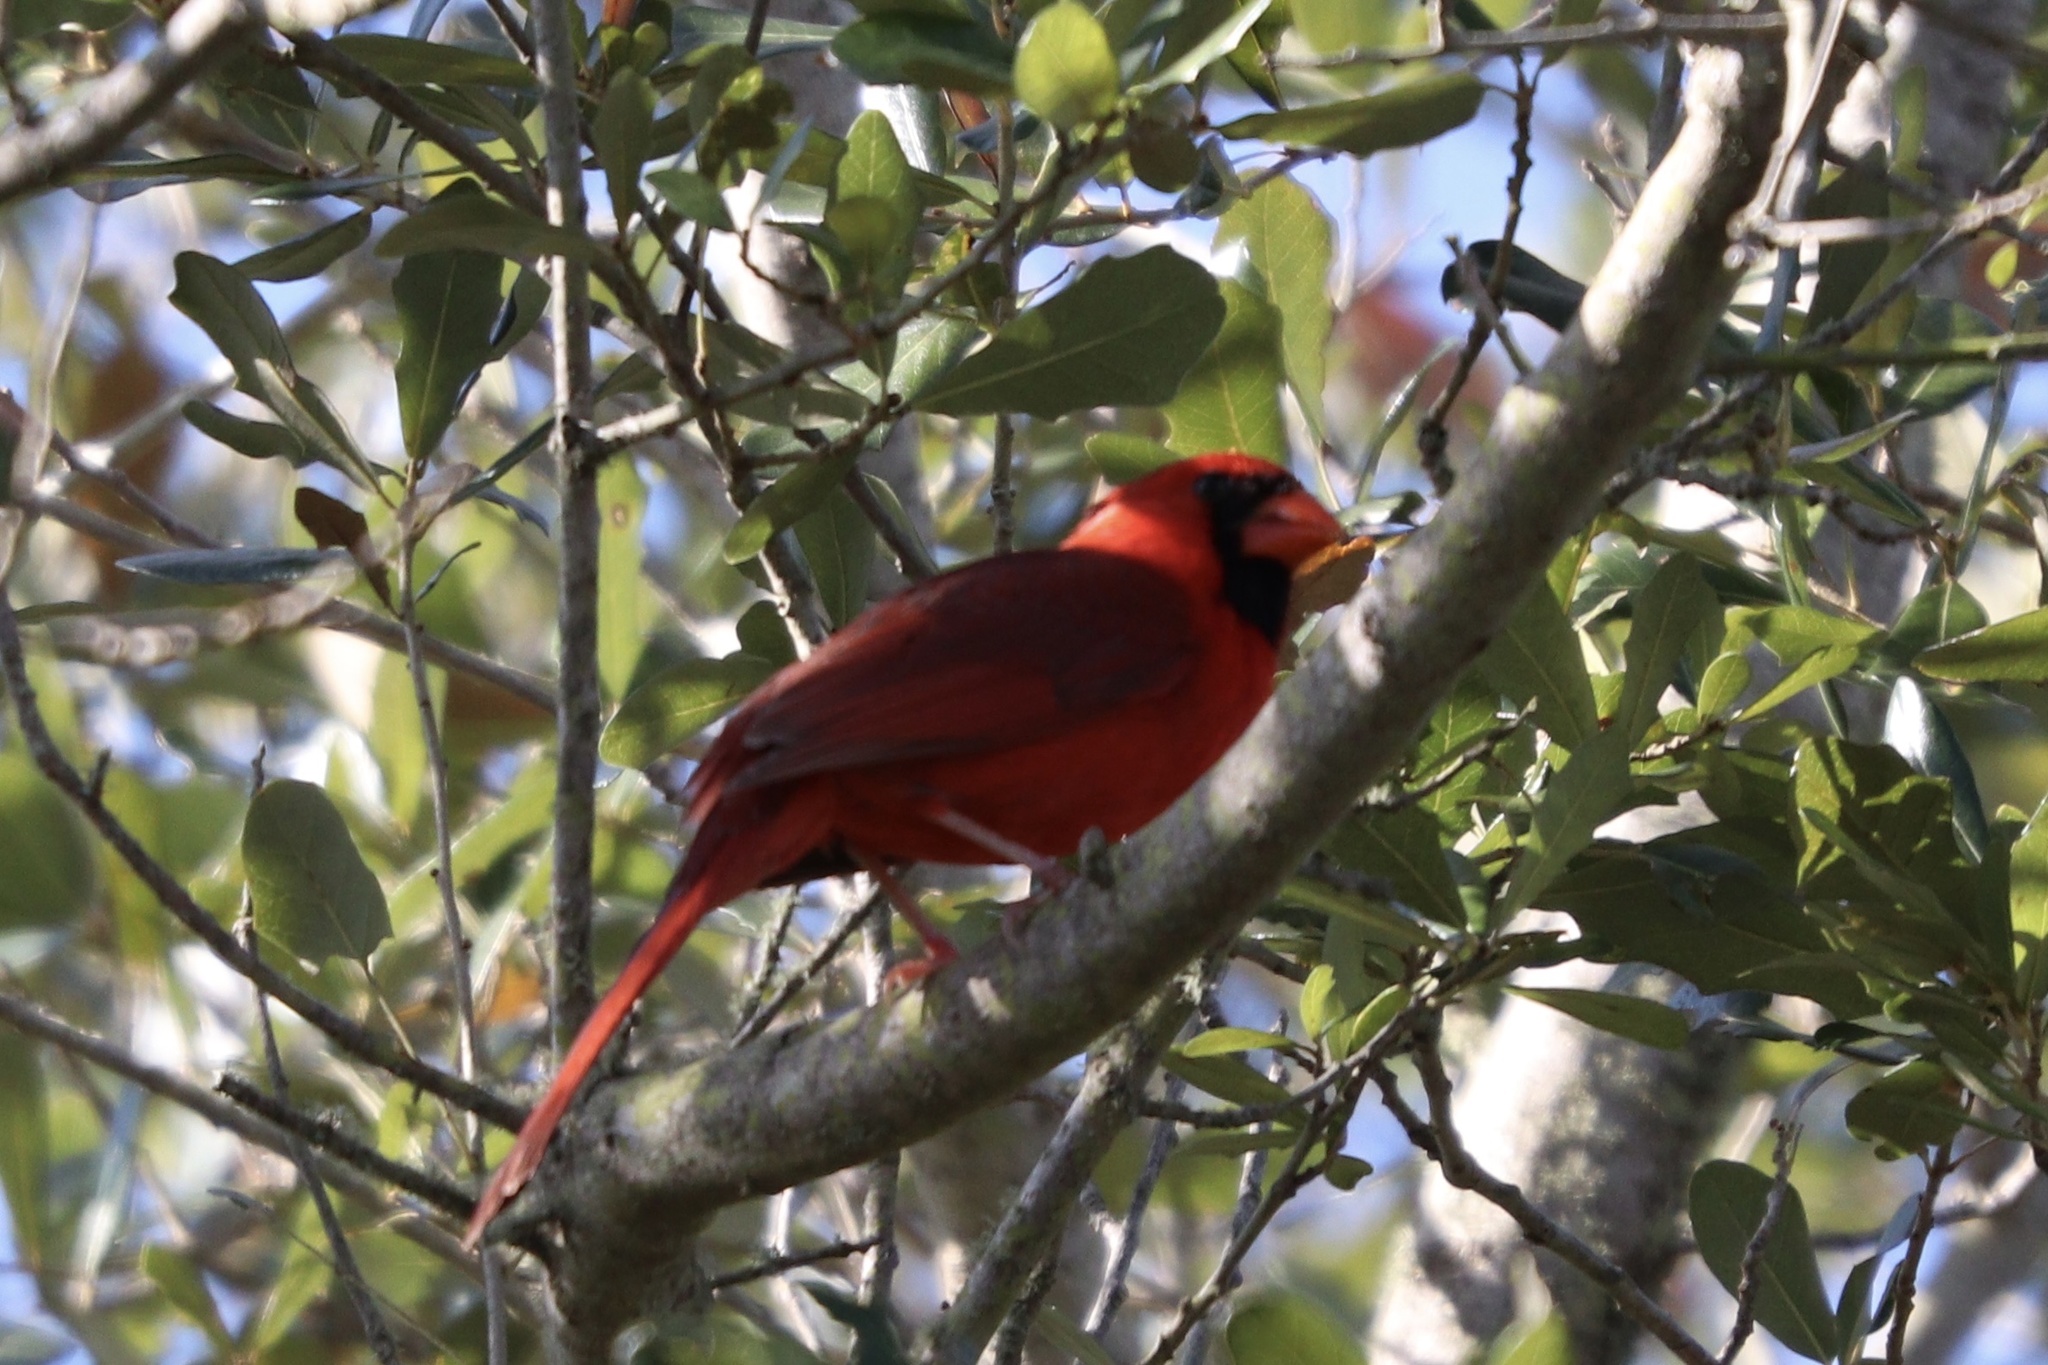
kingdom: Animalia
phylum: Chordata
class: Aves
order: Passeriformes
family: Cardinalidae
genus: Cardinalis
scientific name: Cardinalis cardinalis
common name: Northern cardinal
